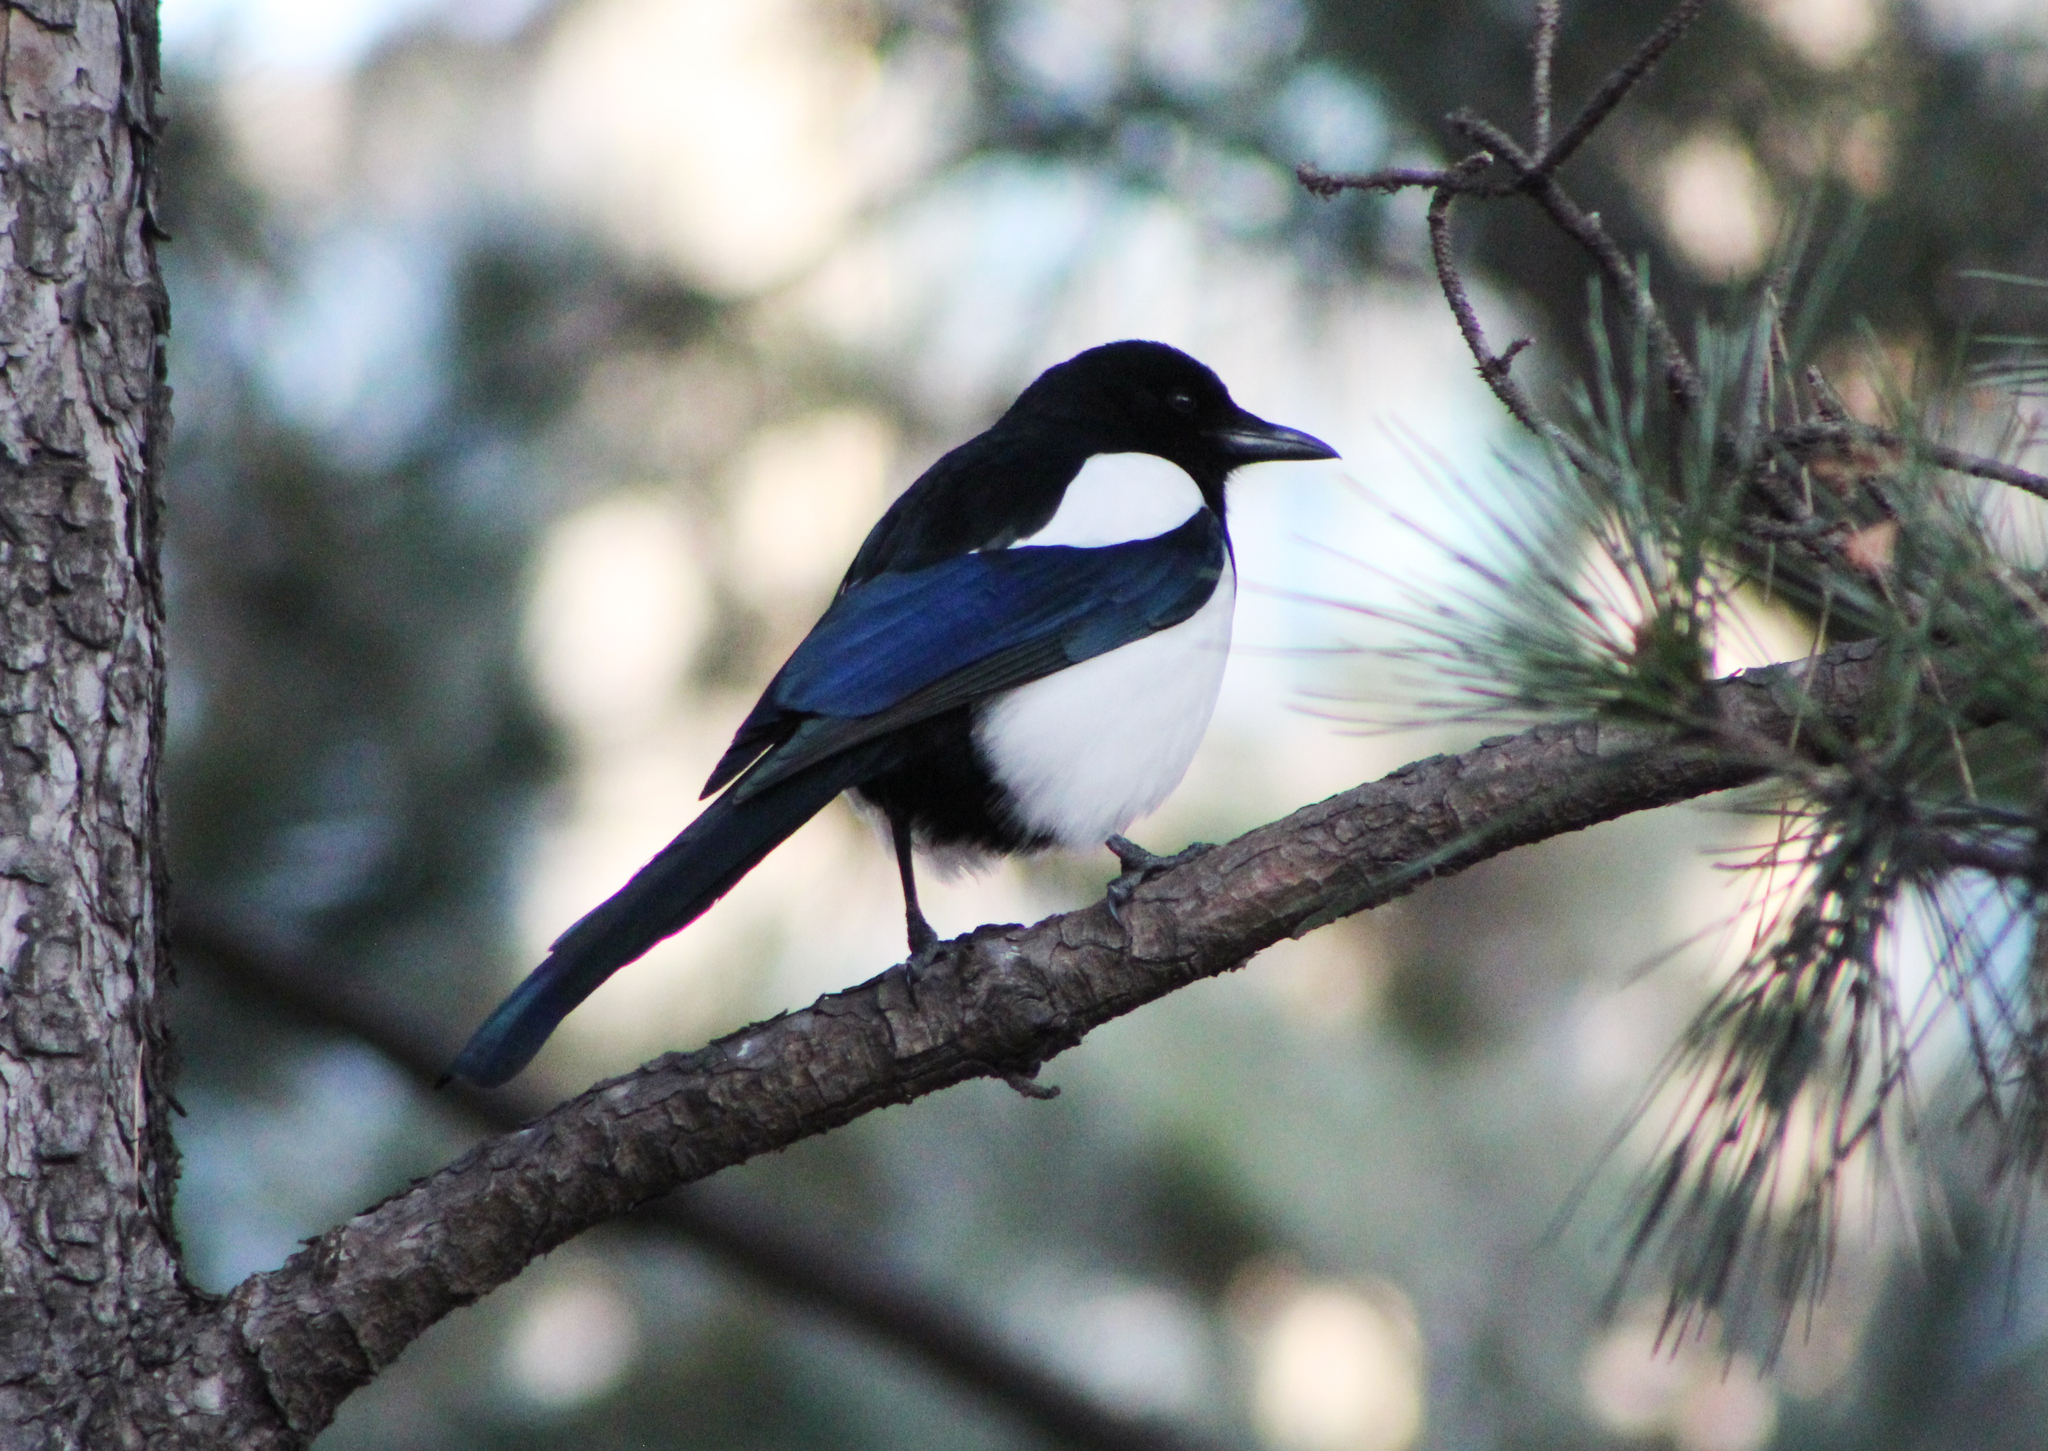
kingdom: Animalia
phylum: Chordata
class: Aves
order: Passeriformes
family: Corvidae
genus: Pica
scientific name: Pica serica
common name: Oriental magpie
